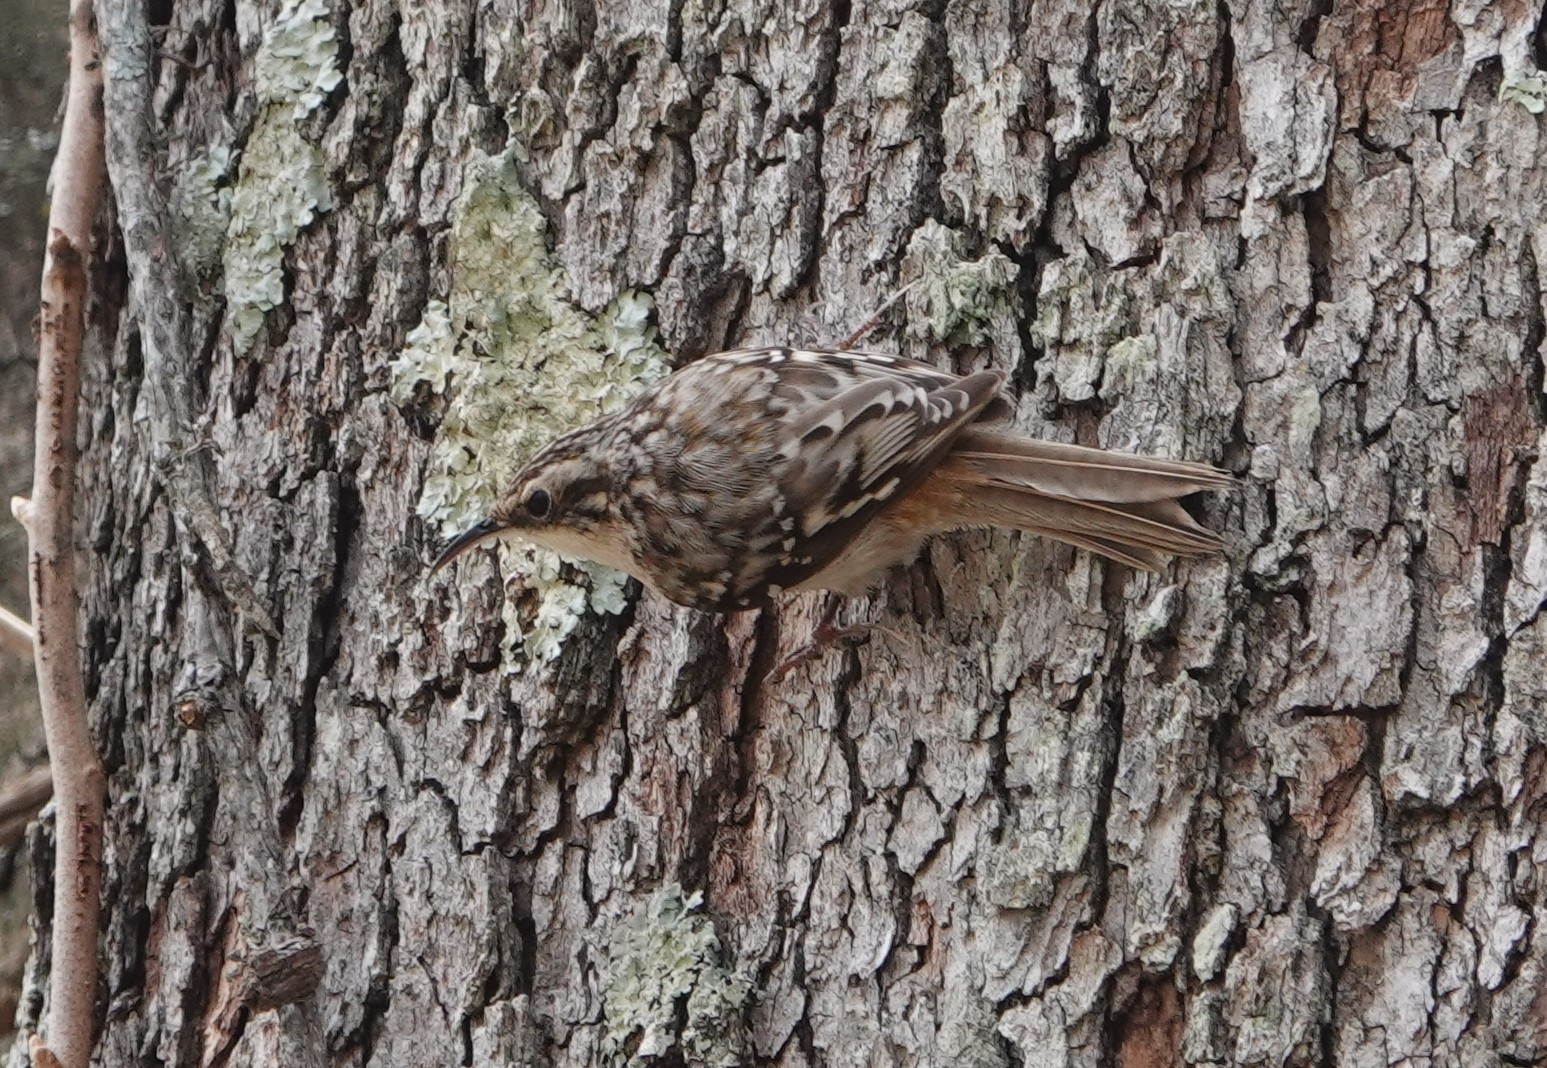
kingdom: Animalia
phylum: Chordata
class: Aves
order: Passeriformes
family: Certhiidae
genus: Certhia
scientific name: Certhia americana
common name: Brown creeper
